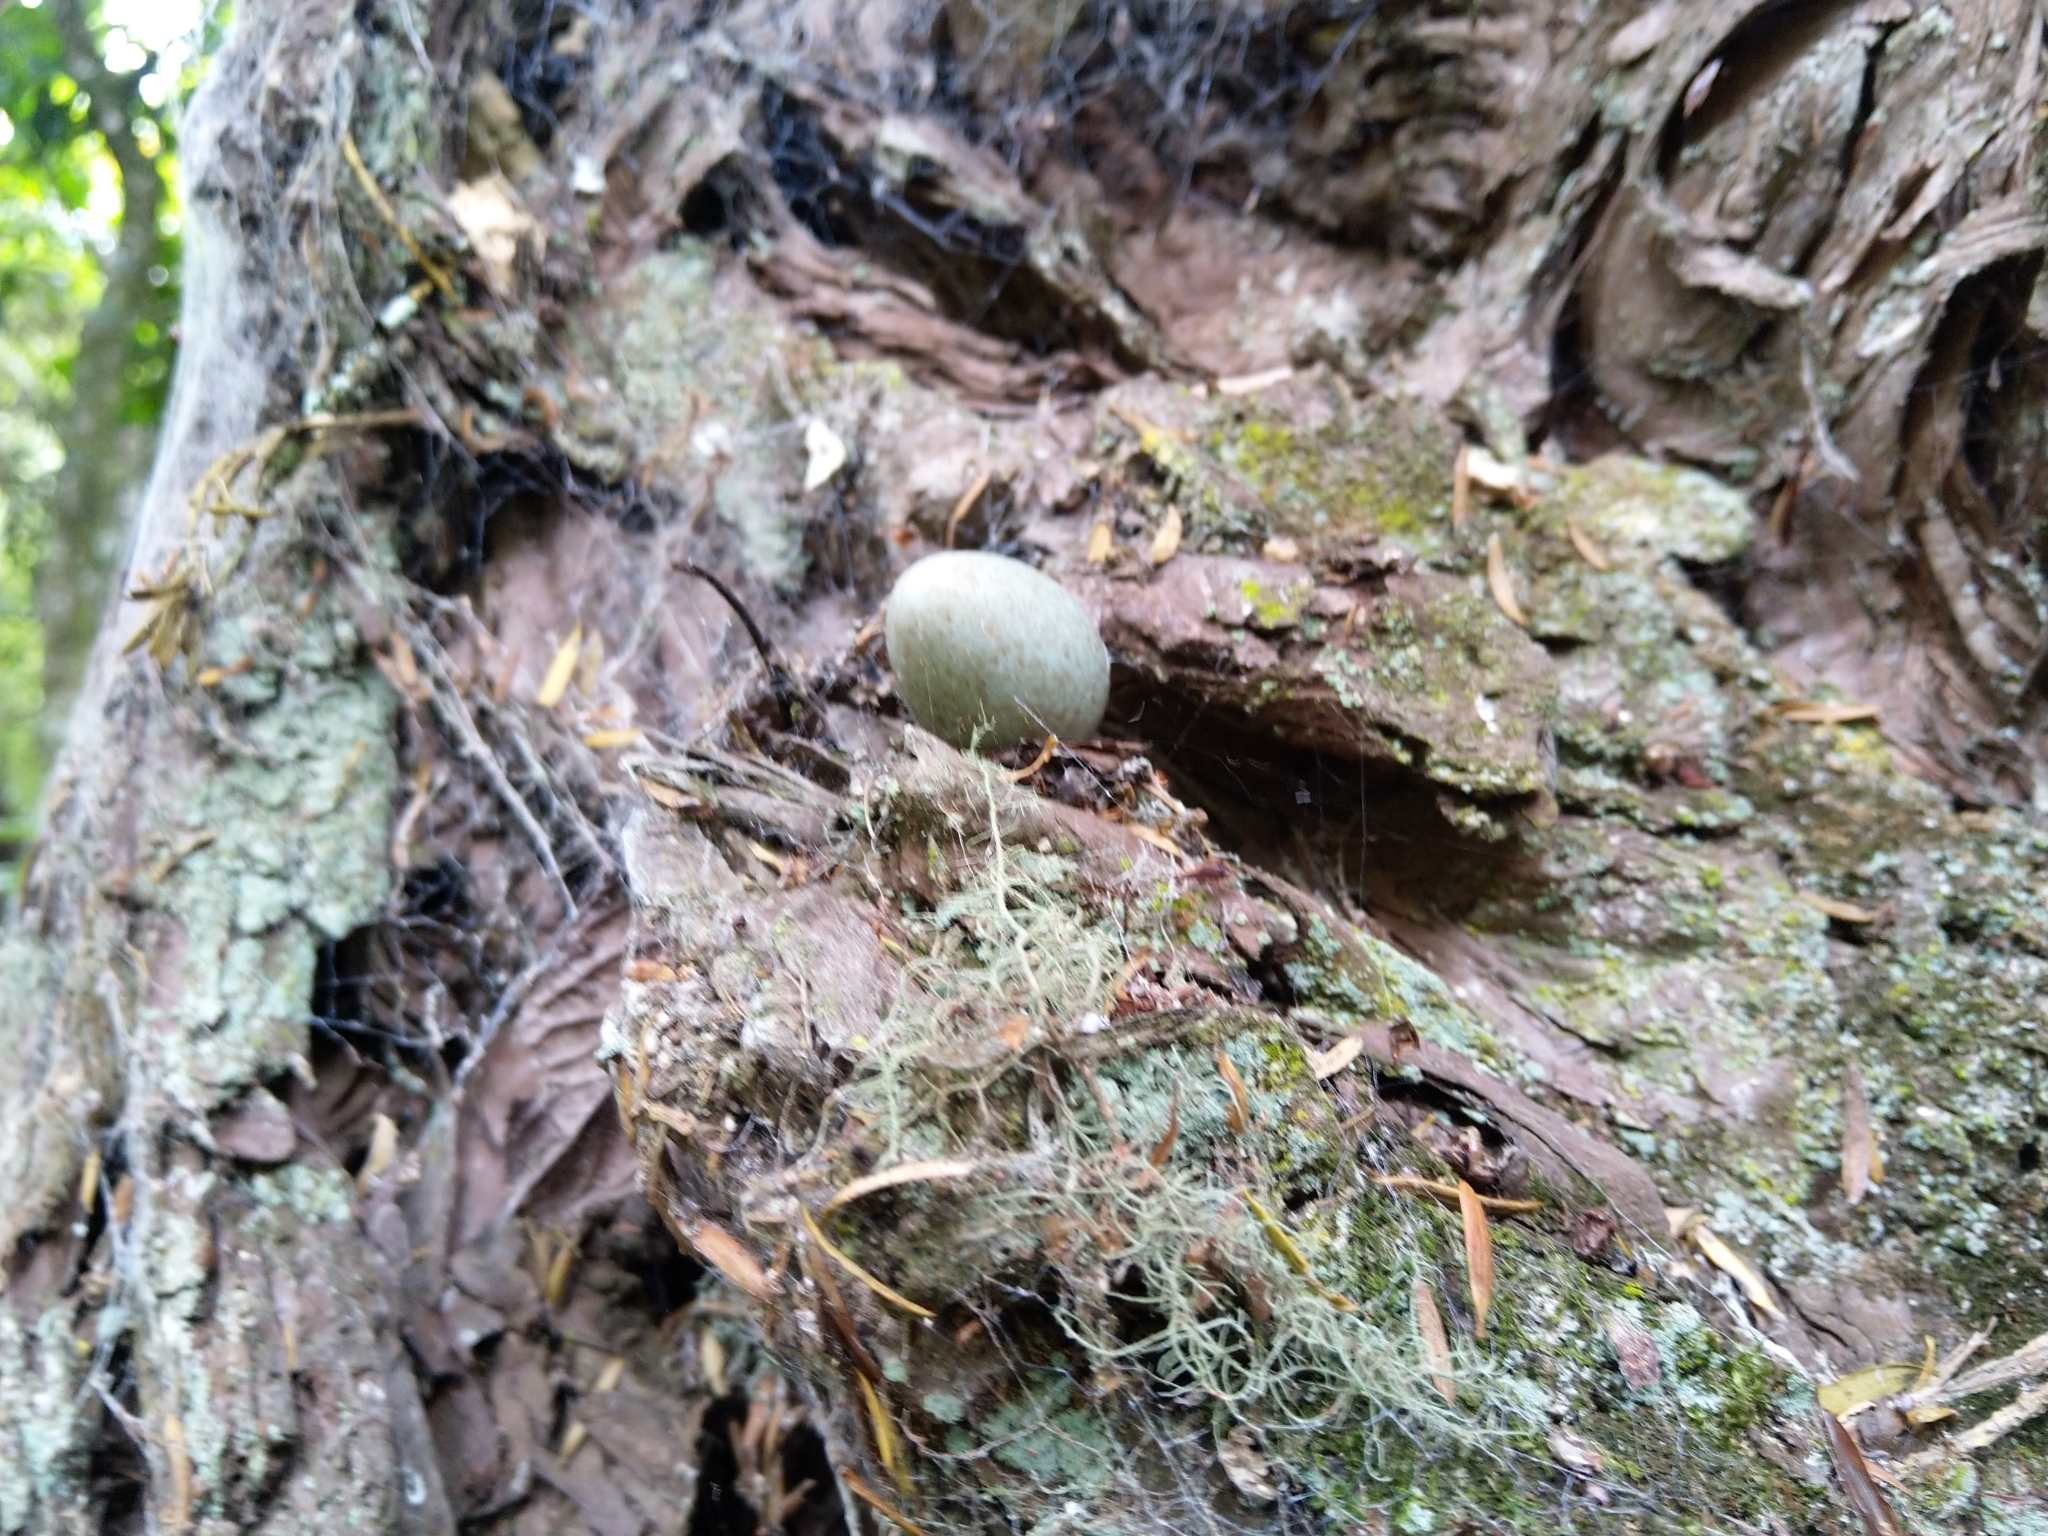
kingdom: Animalia
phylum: Chordata
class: Aves
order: Passeriformes
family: Turdidae
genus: Turdus
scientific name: Turdus merula
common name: Common blackbird
